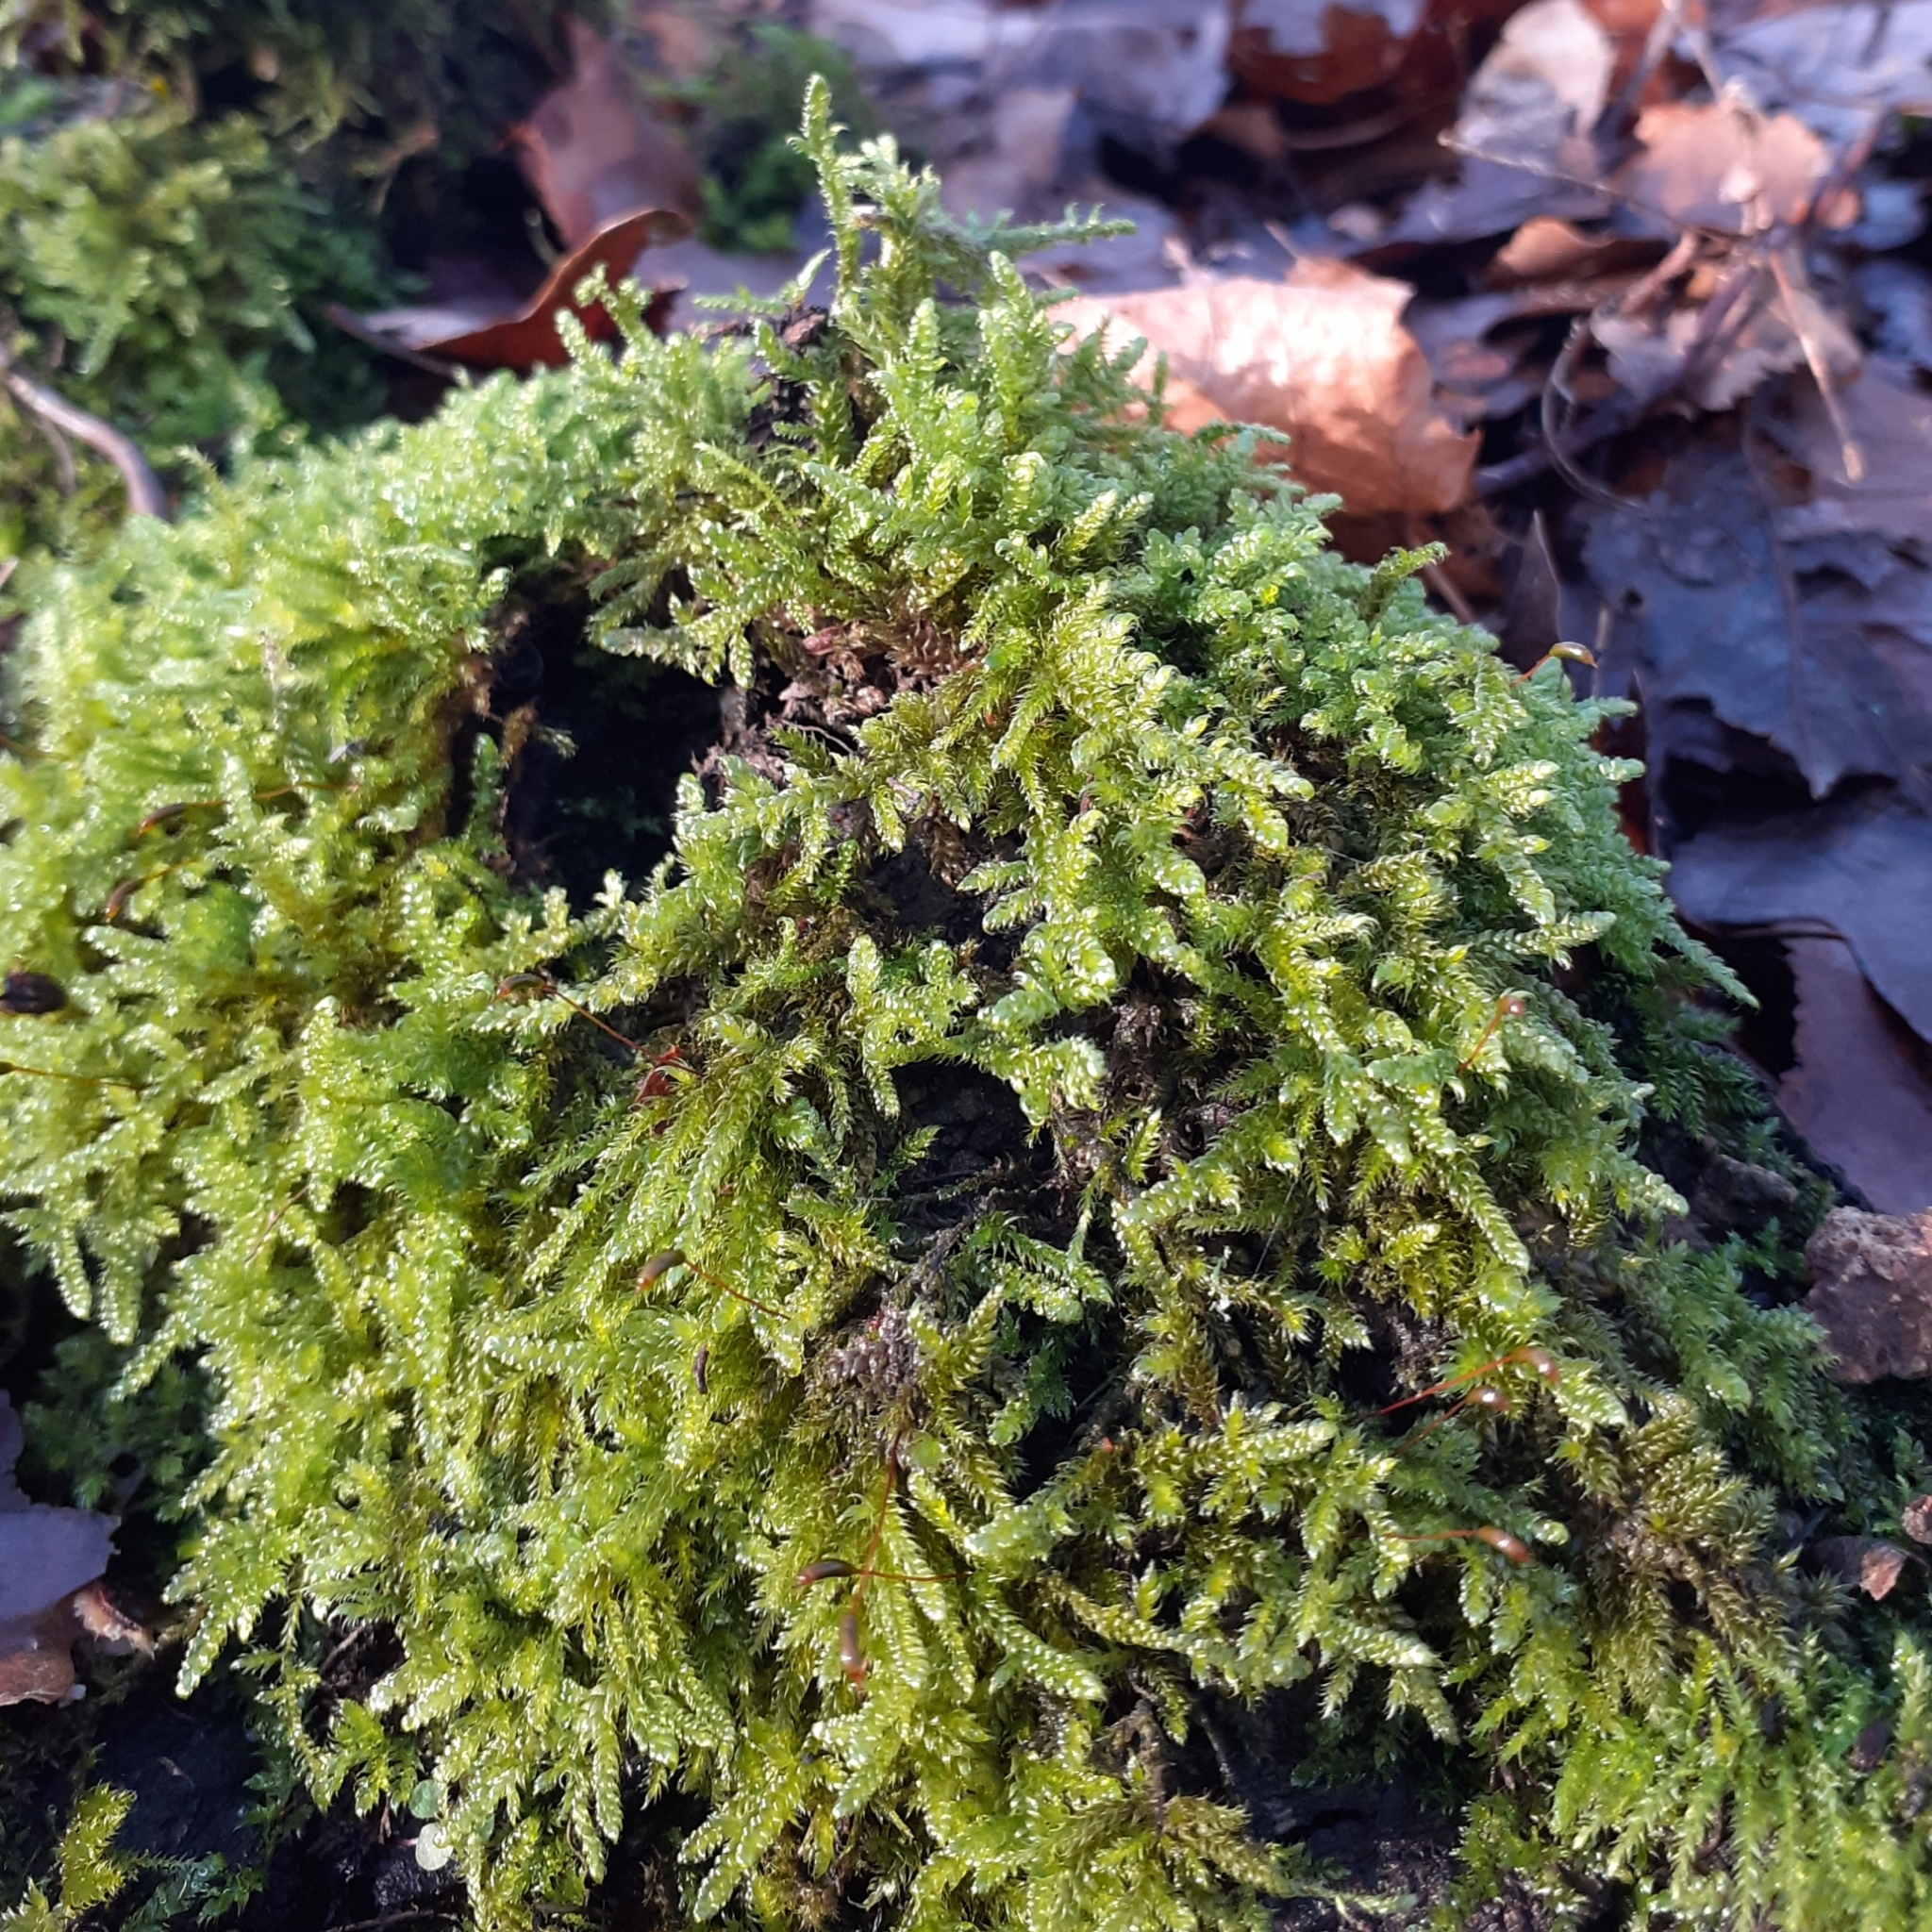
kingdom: Plantae
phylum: Bryophyta
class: Bryopsida
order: Hypnales
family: Hypnaceae
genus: Hypnum
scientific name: Hypnum cupressiforme
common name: Cypress-leaved plait-moss
